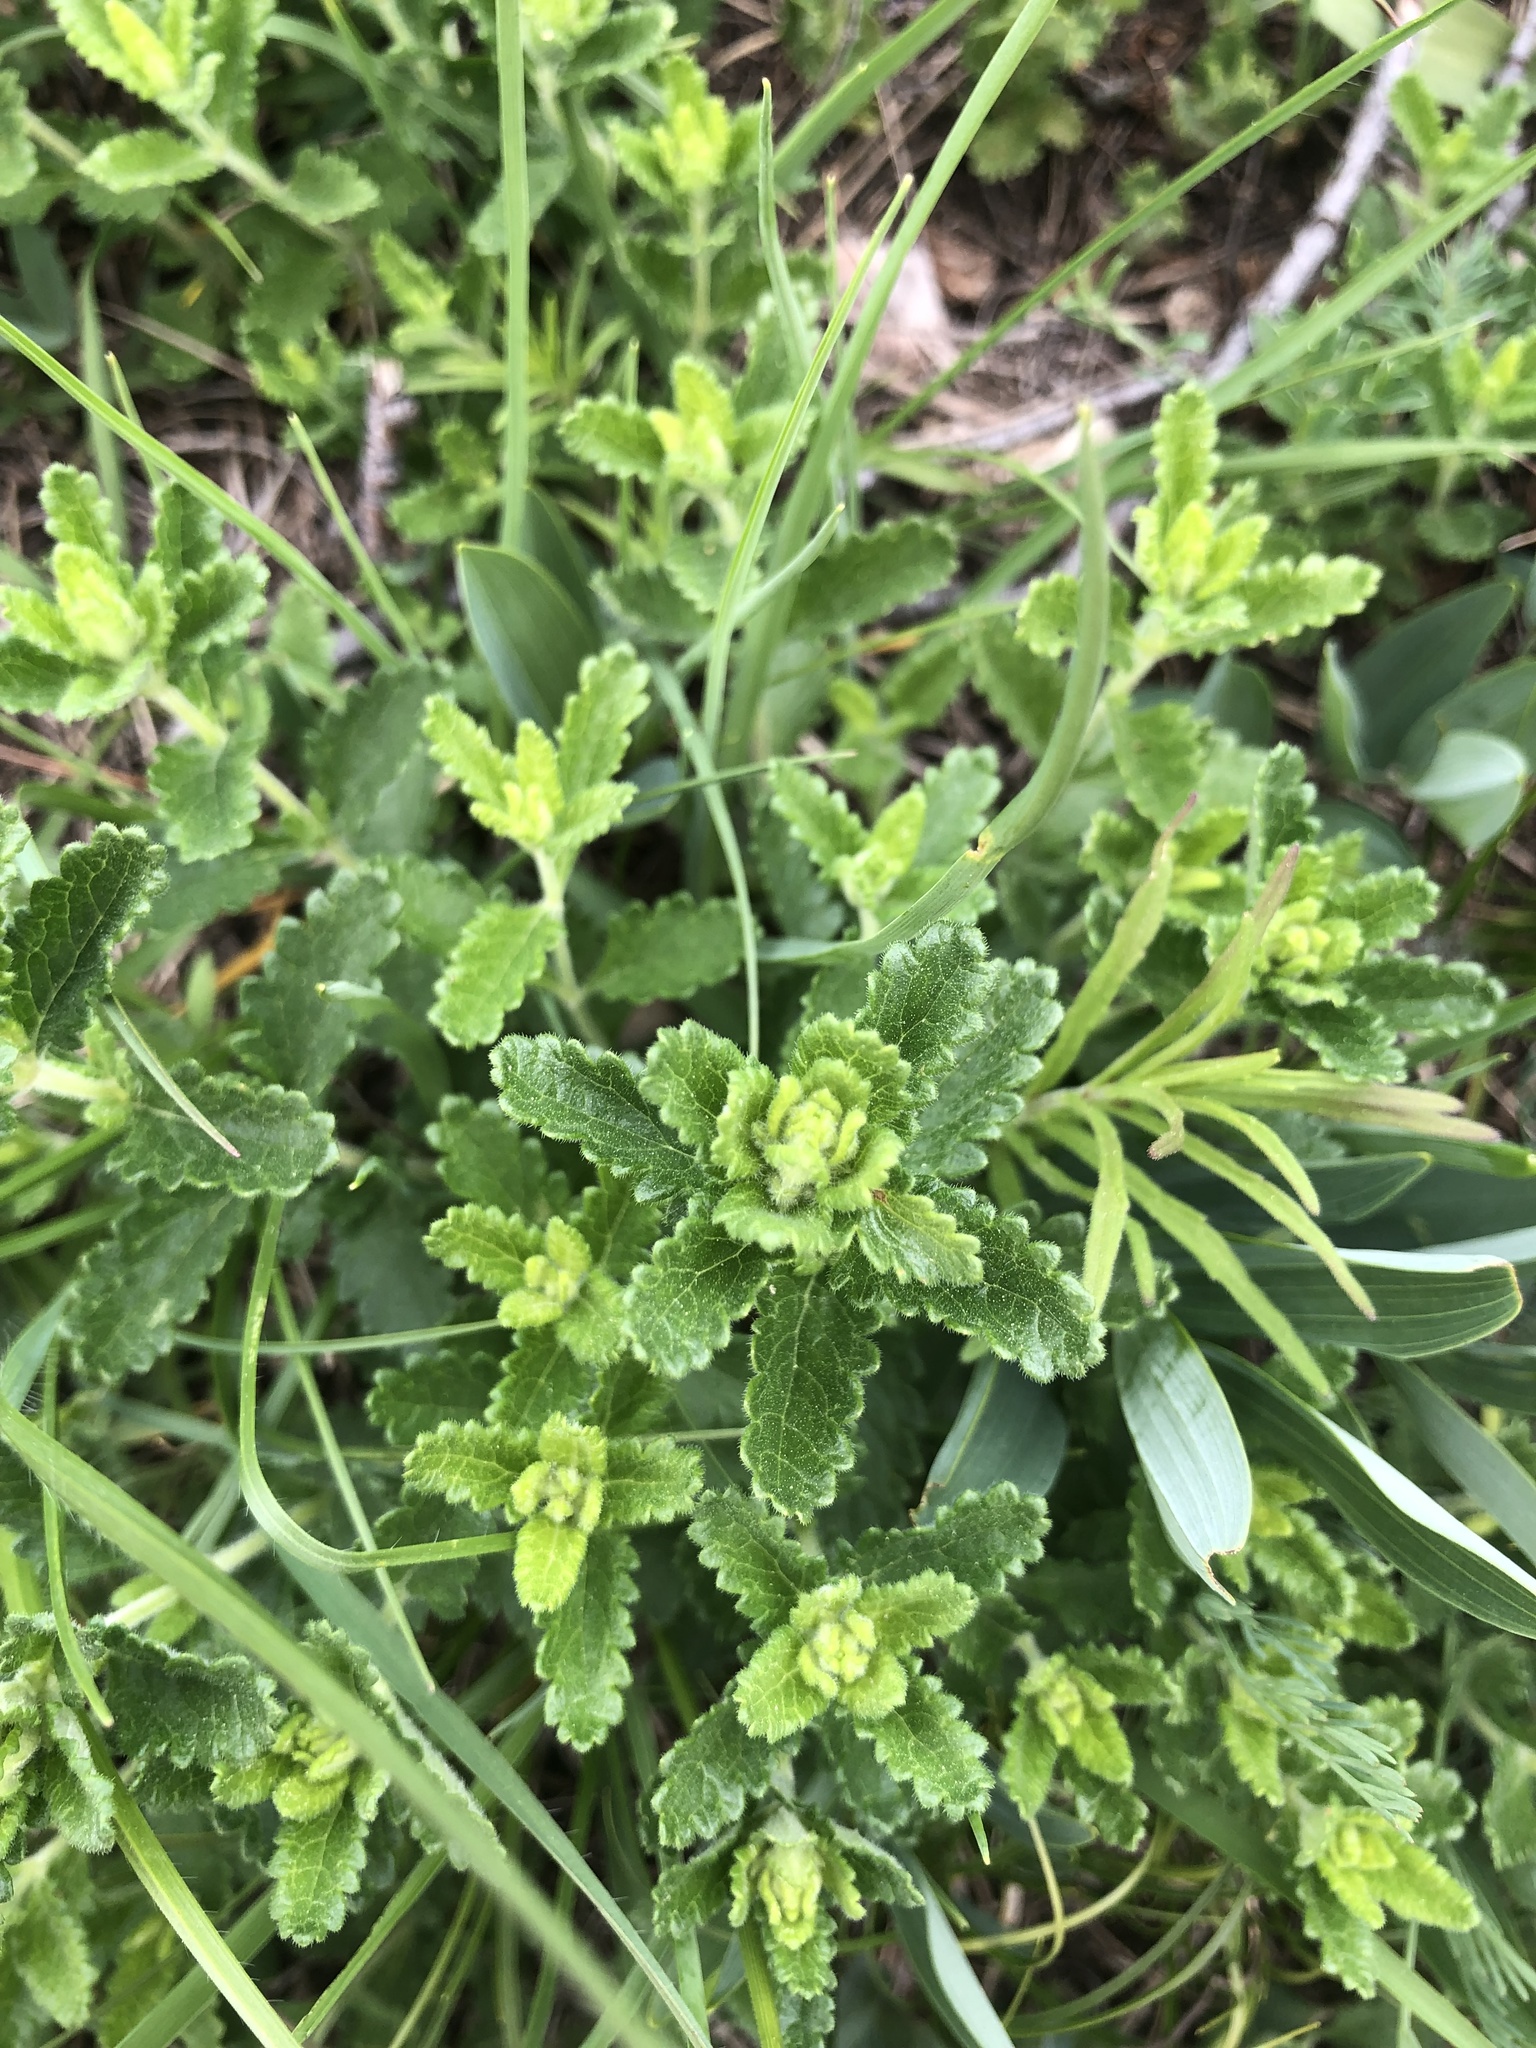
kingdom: Plantae
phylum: Tracheophyta
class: Magnoliopsida
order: Lamiales
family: Lamiaceae
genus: Teucrium
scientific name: Teucrium chamaedrys
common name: Wall germander
